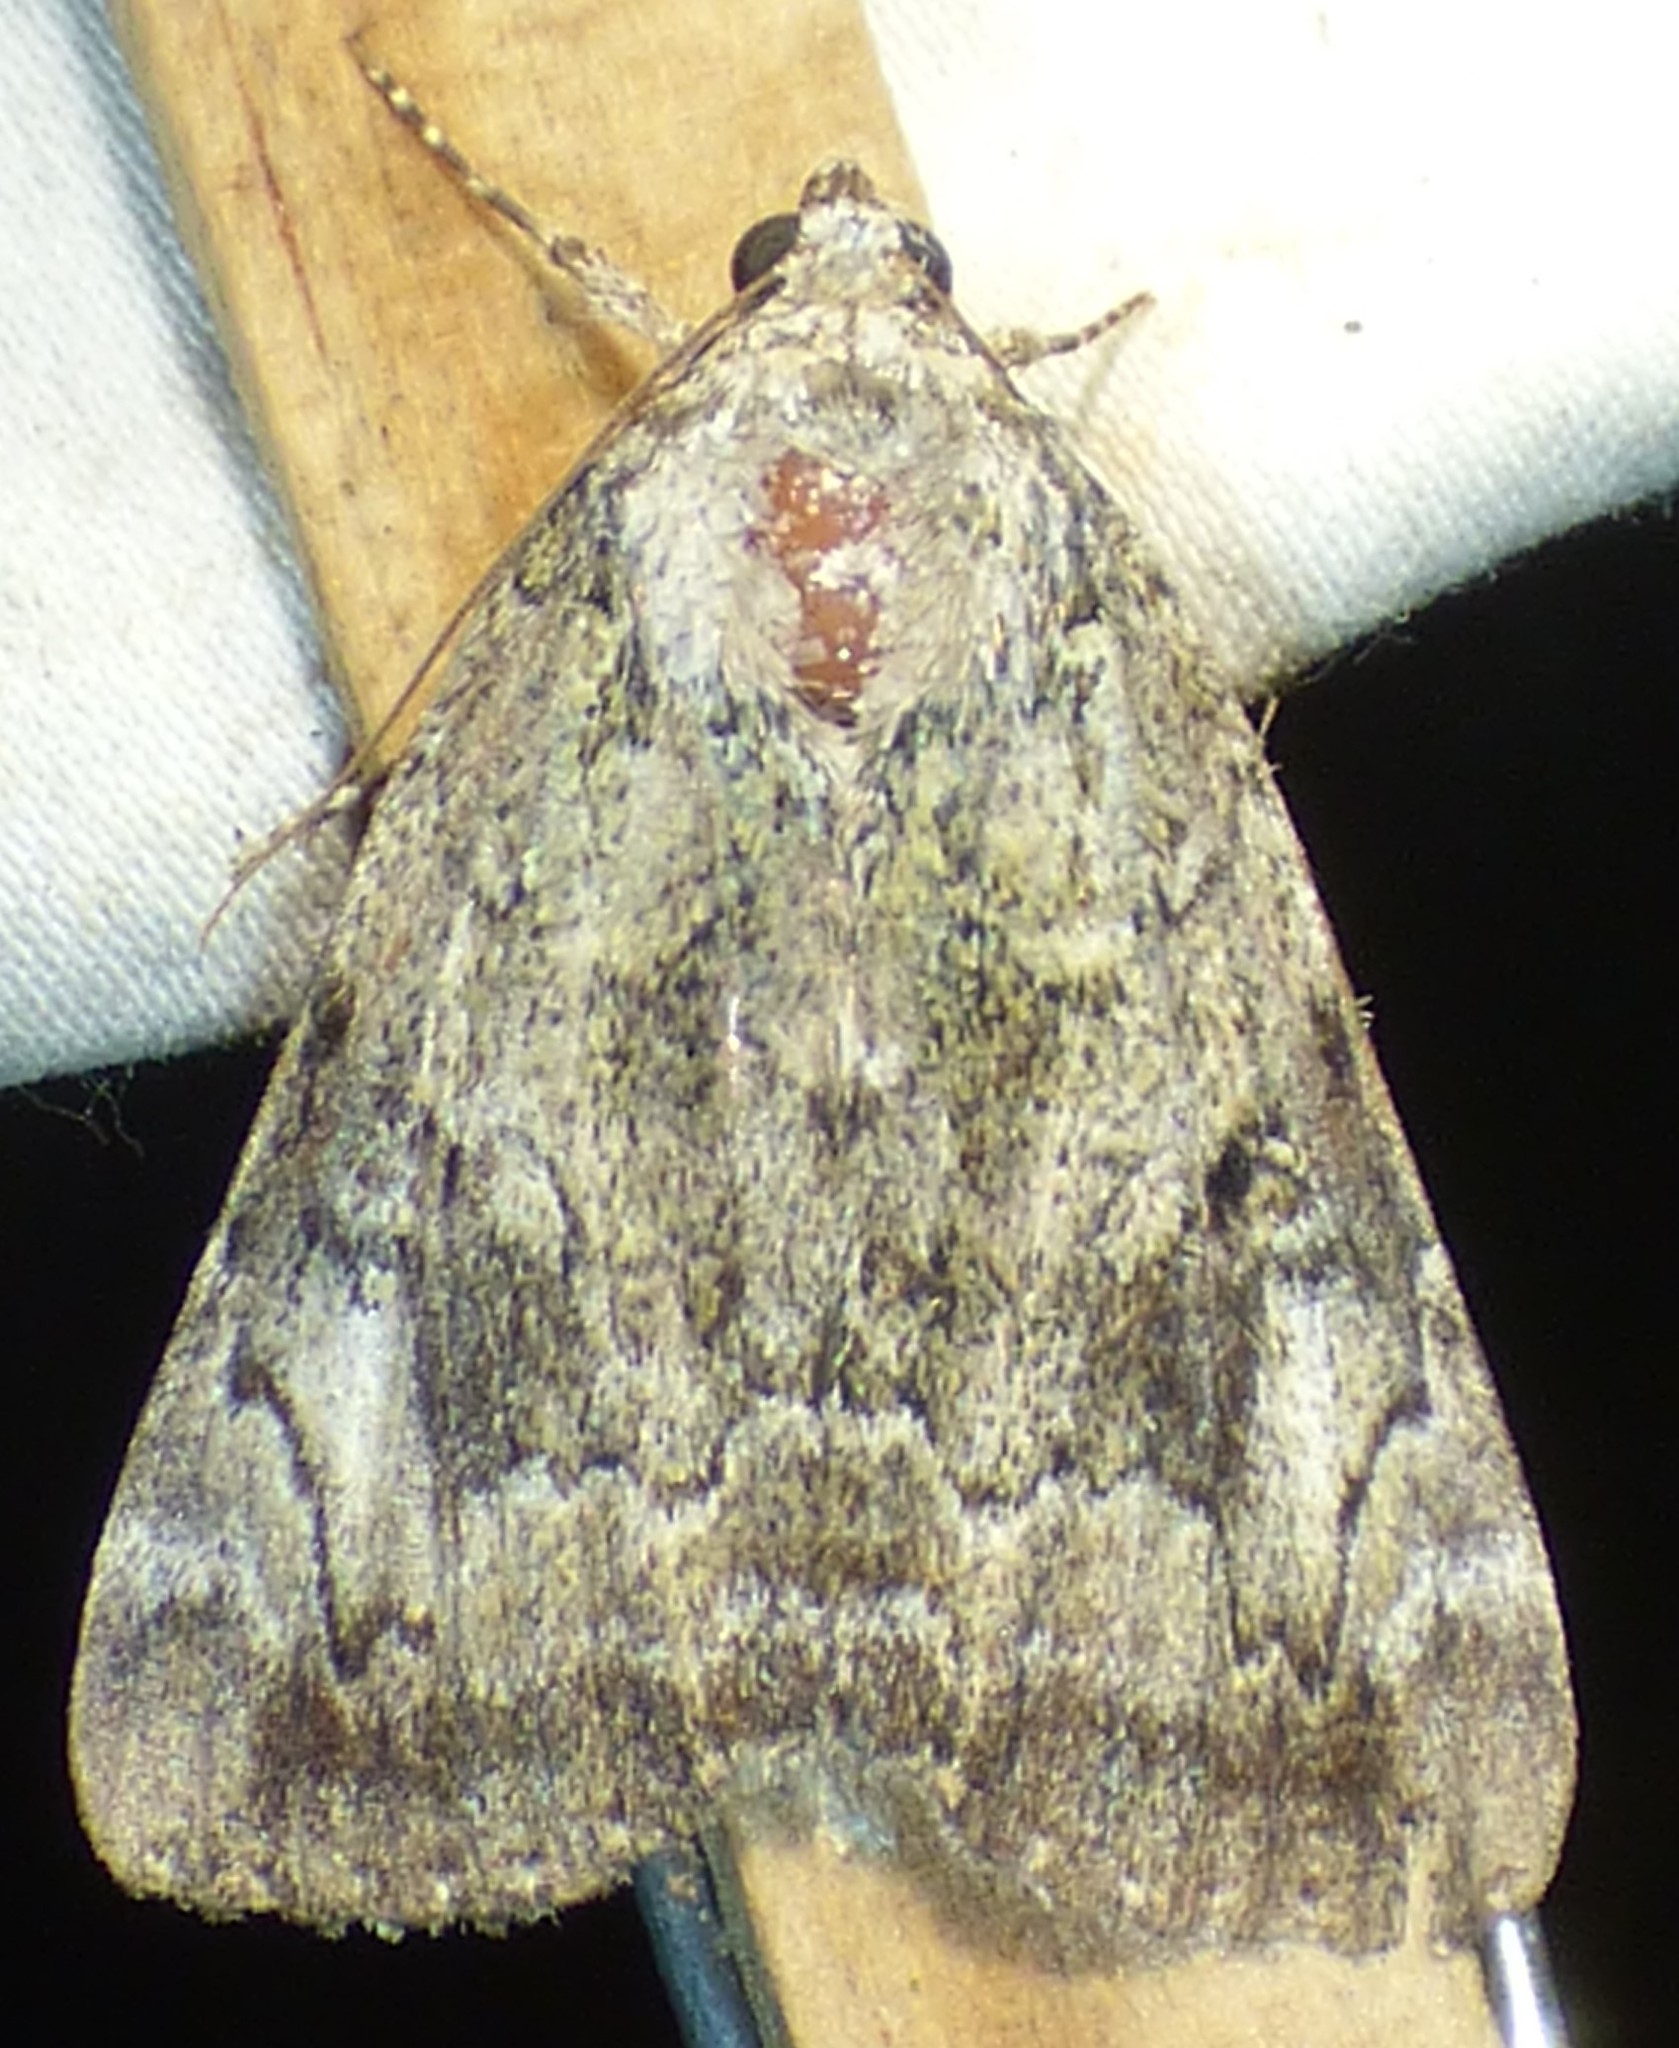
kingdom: Animalia
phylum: Arthropoda
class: Insecta
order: Lepidoptera
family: Erebidae
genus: Catocala
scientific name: Catocala micronympha
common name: Little nymph underwing
